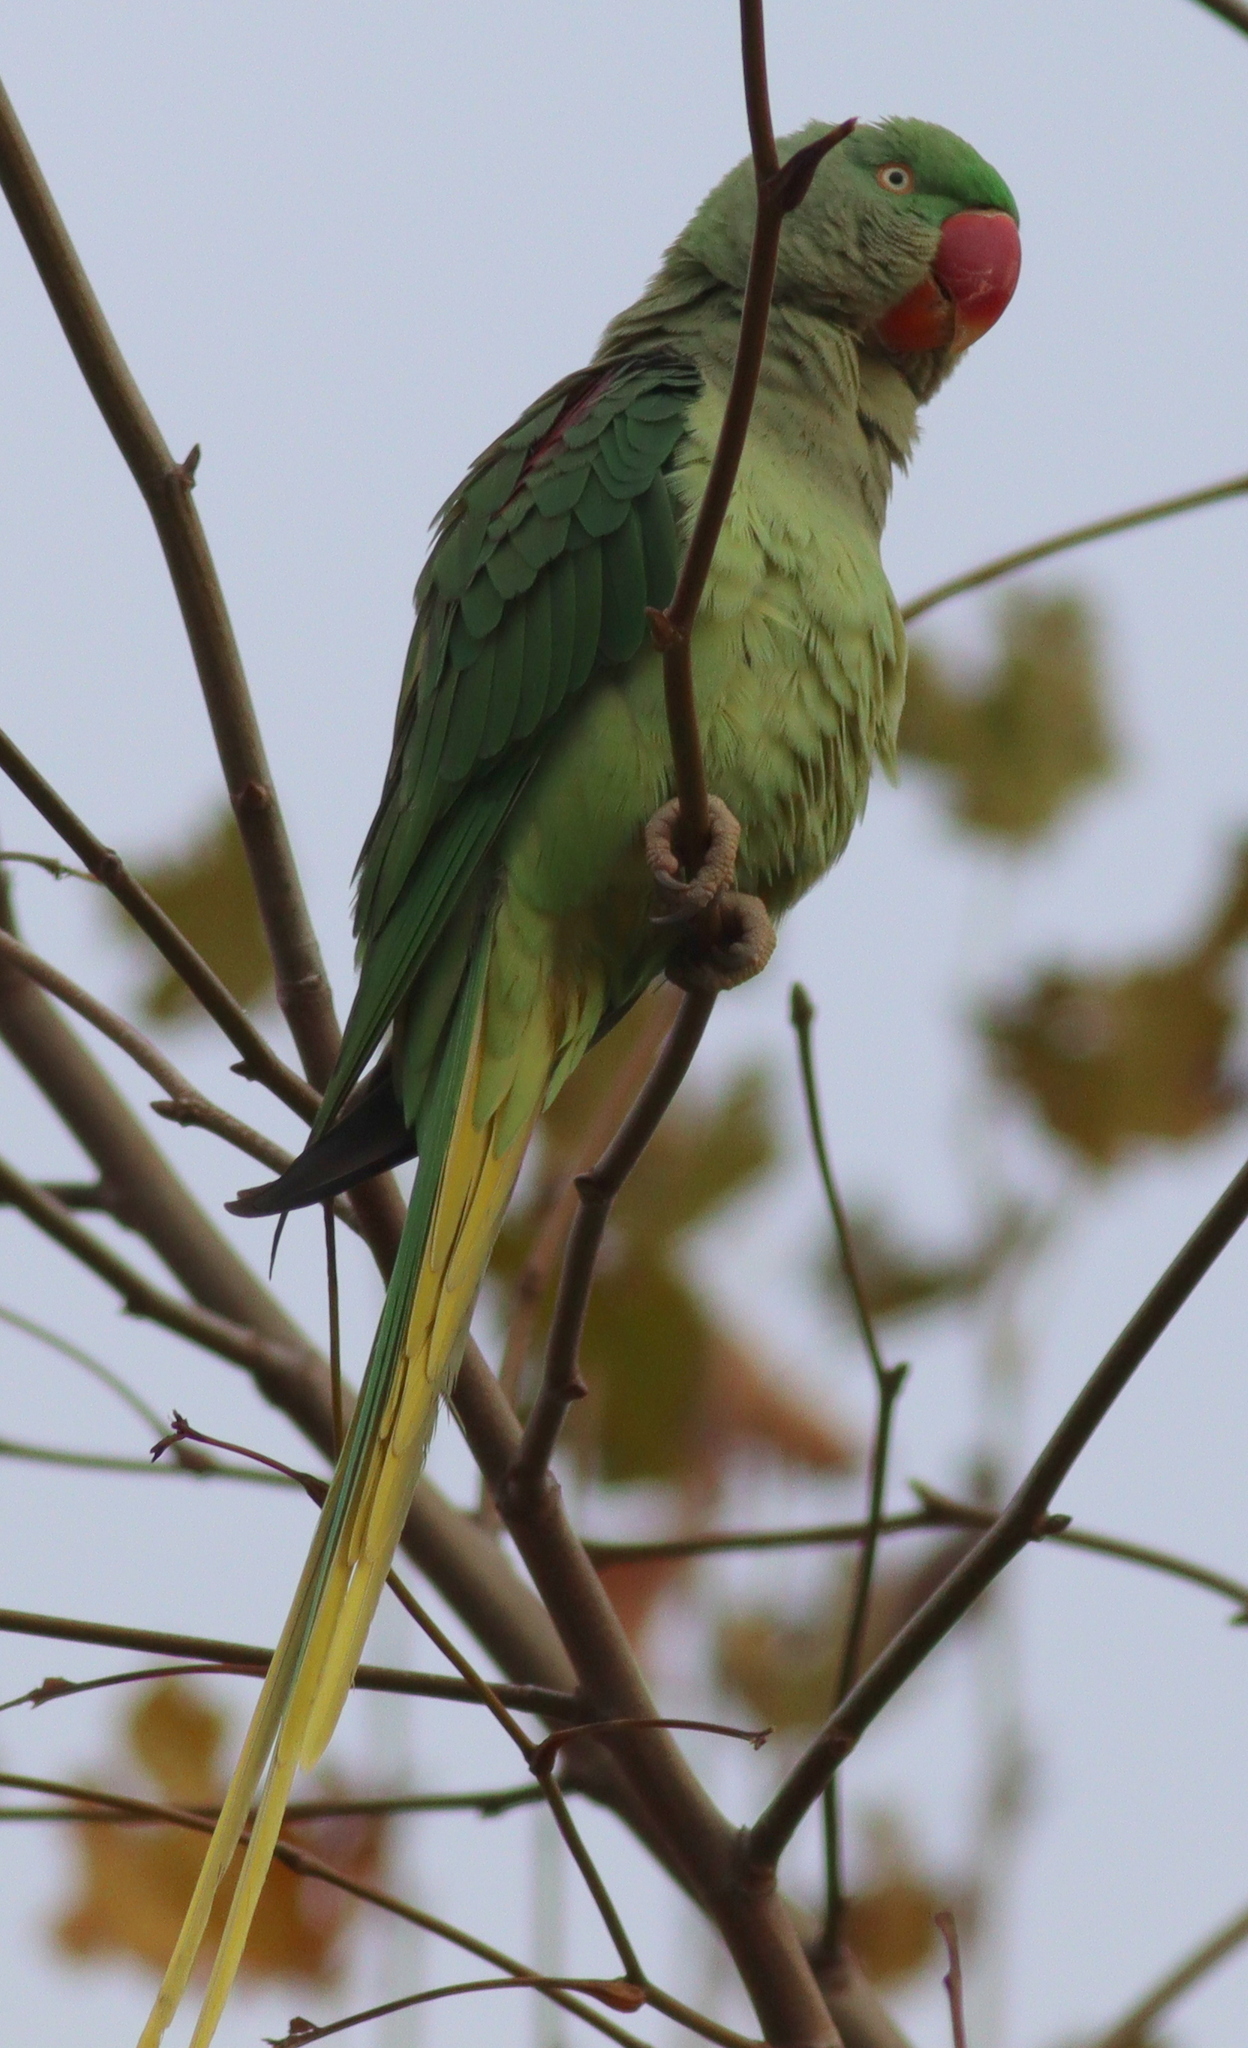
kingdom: Animalia
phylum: Chordata
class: Aves
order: Psittaciformes
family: Psittacidae
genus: Psittacula
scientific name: Psittacula eupatria
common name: Alexandrine parakeet
